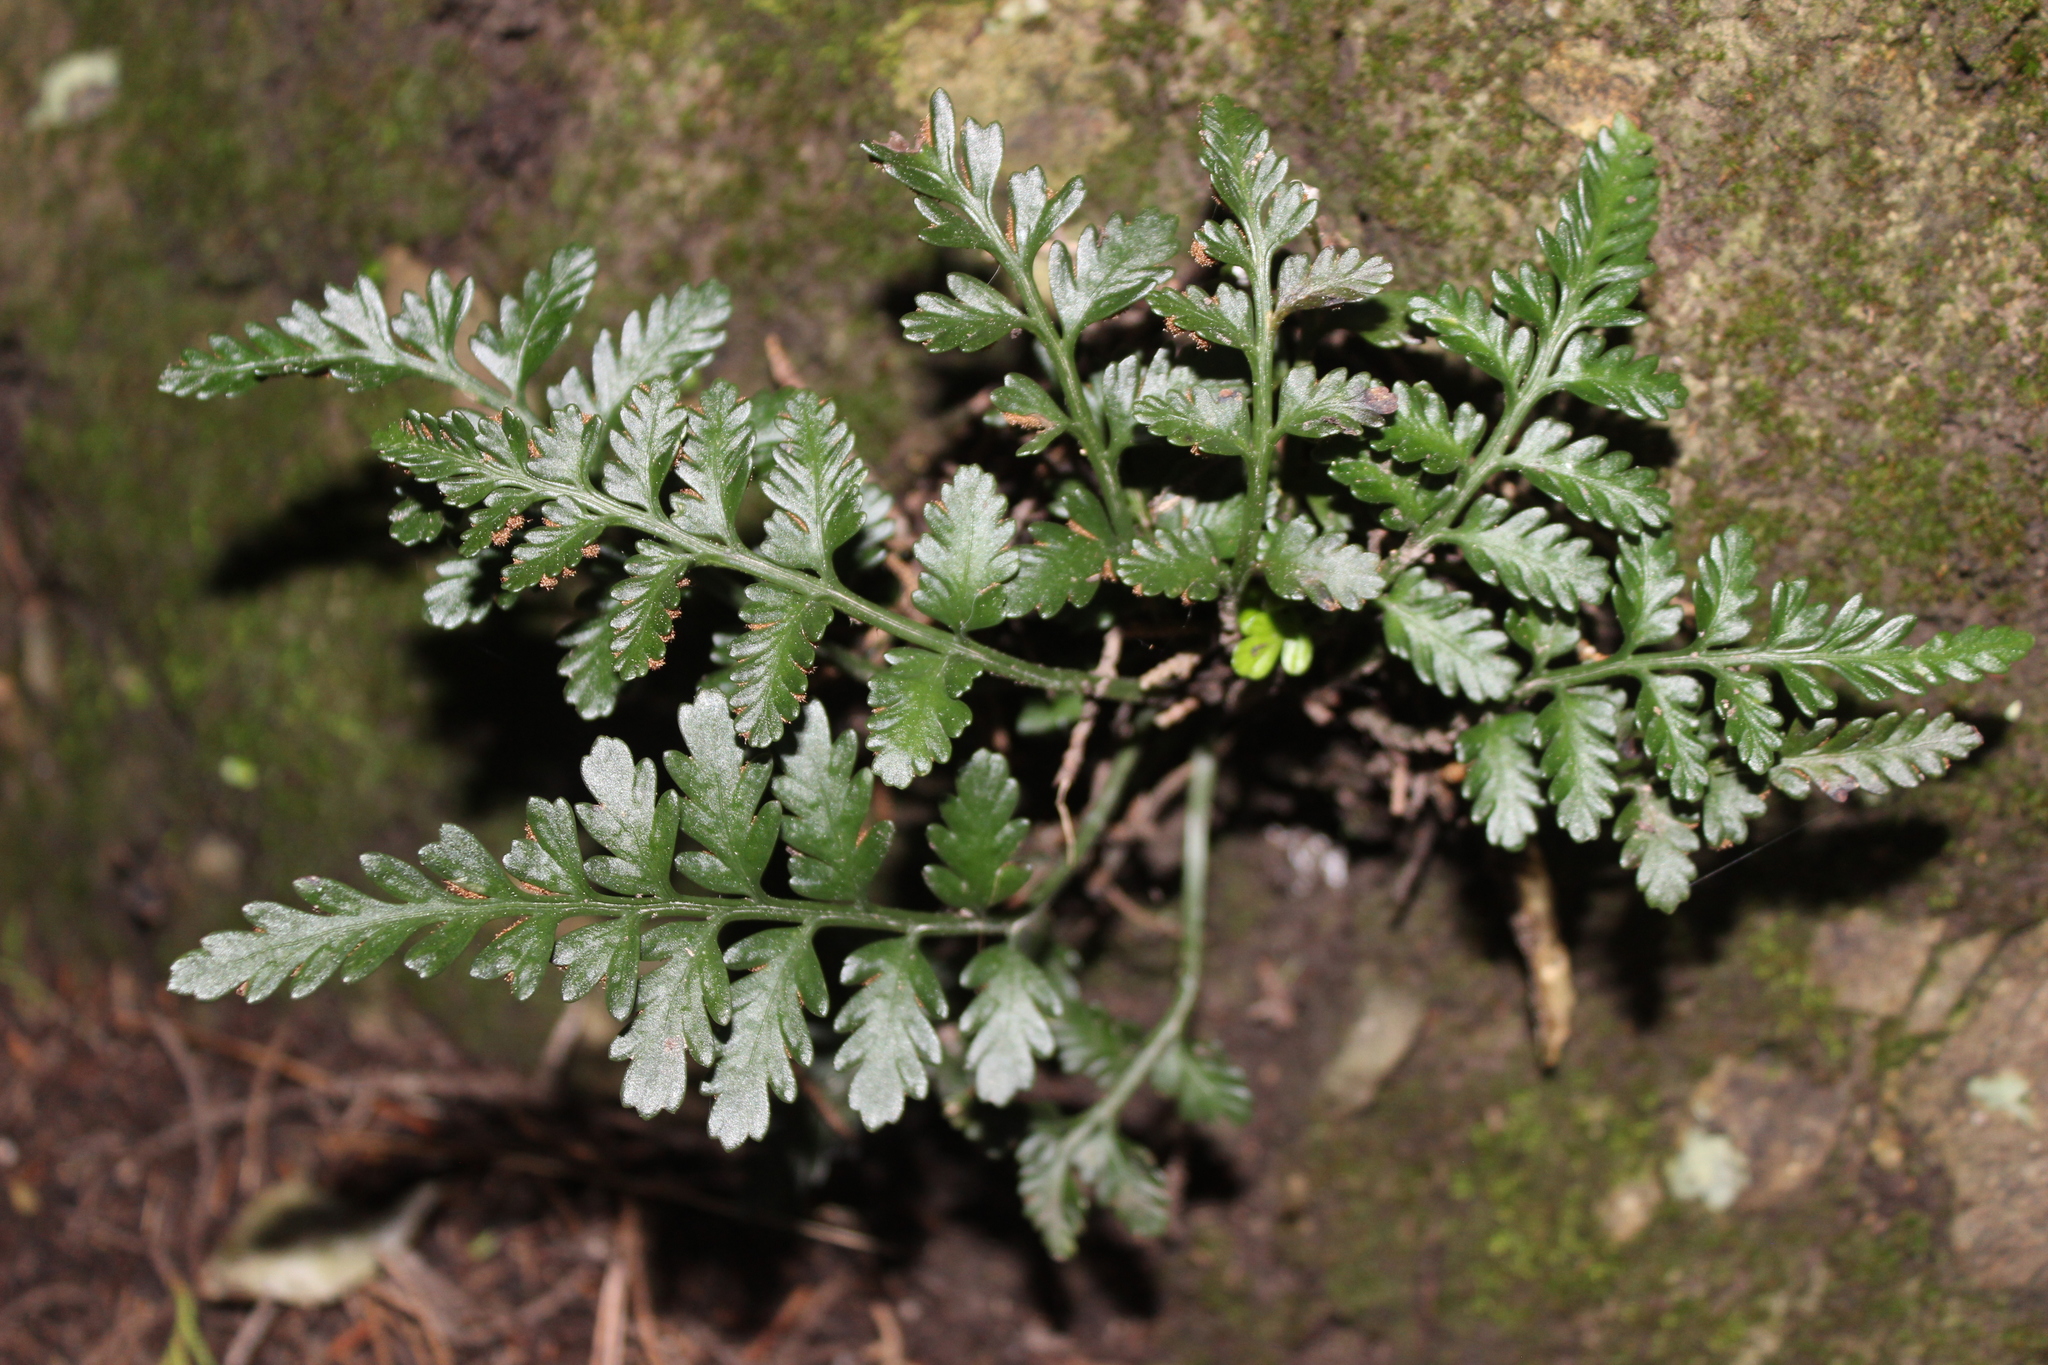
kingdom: Plantae
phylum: Tracheophyta
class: Polypodiopsida
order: Polypodiales
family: Aspleniaceae
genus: Asplenium
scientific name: Asplenium appendiculatum
